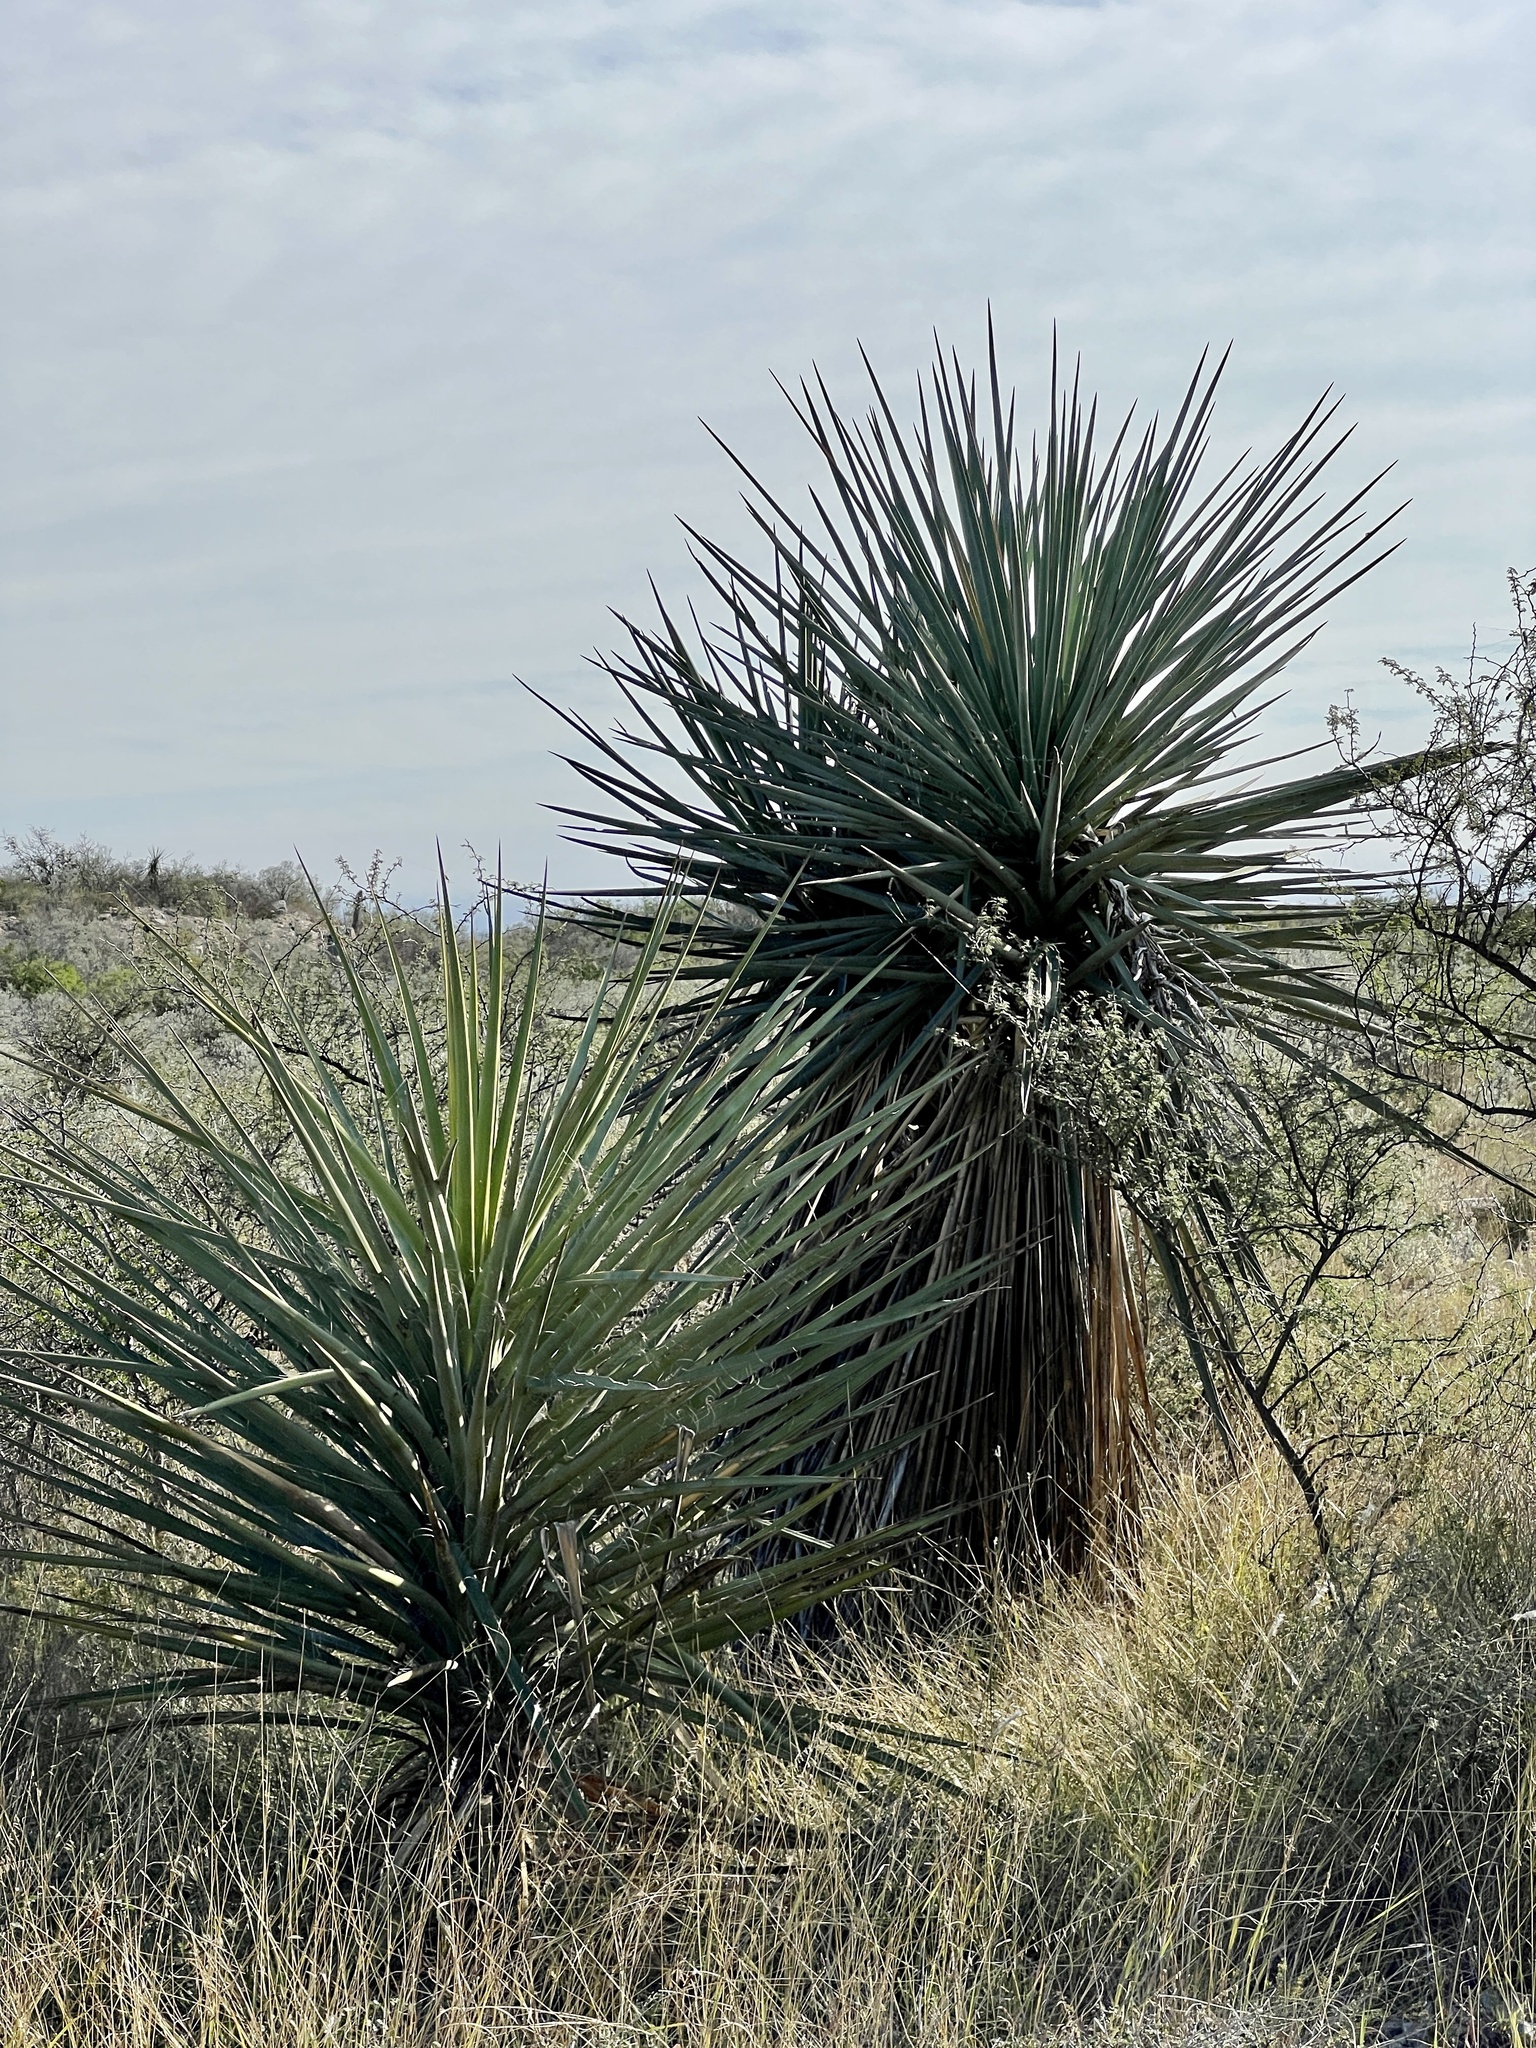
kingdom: Plantae
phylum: Tracheophyta
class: Liliopsida
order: Asparagales
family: Asparagaceae
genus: Yucca
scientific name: Yucca treculiana
